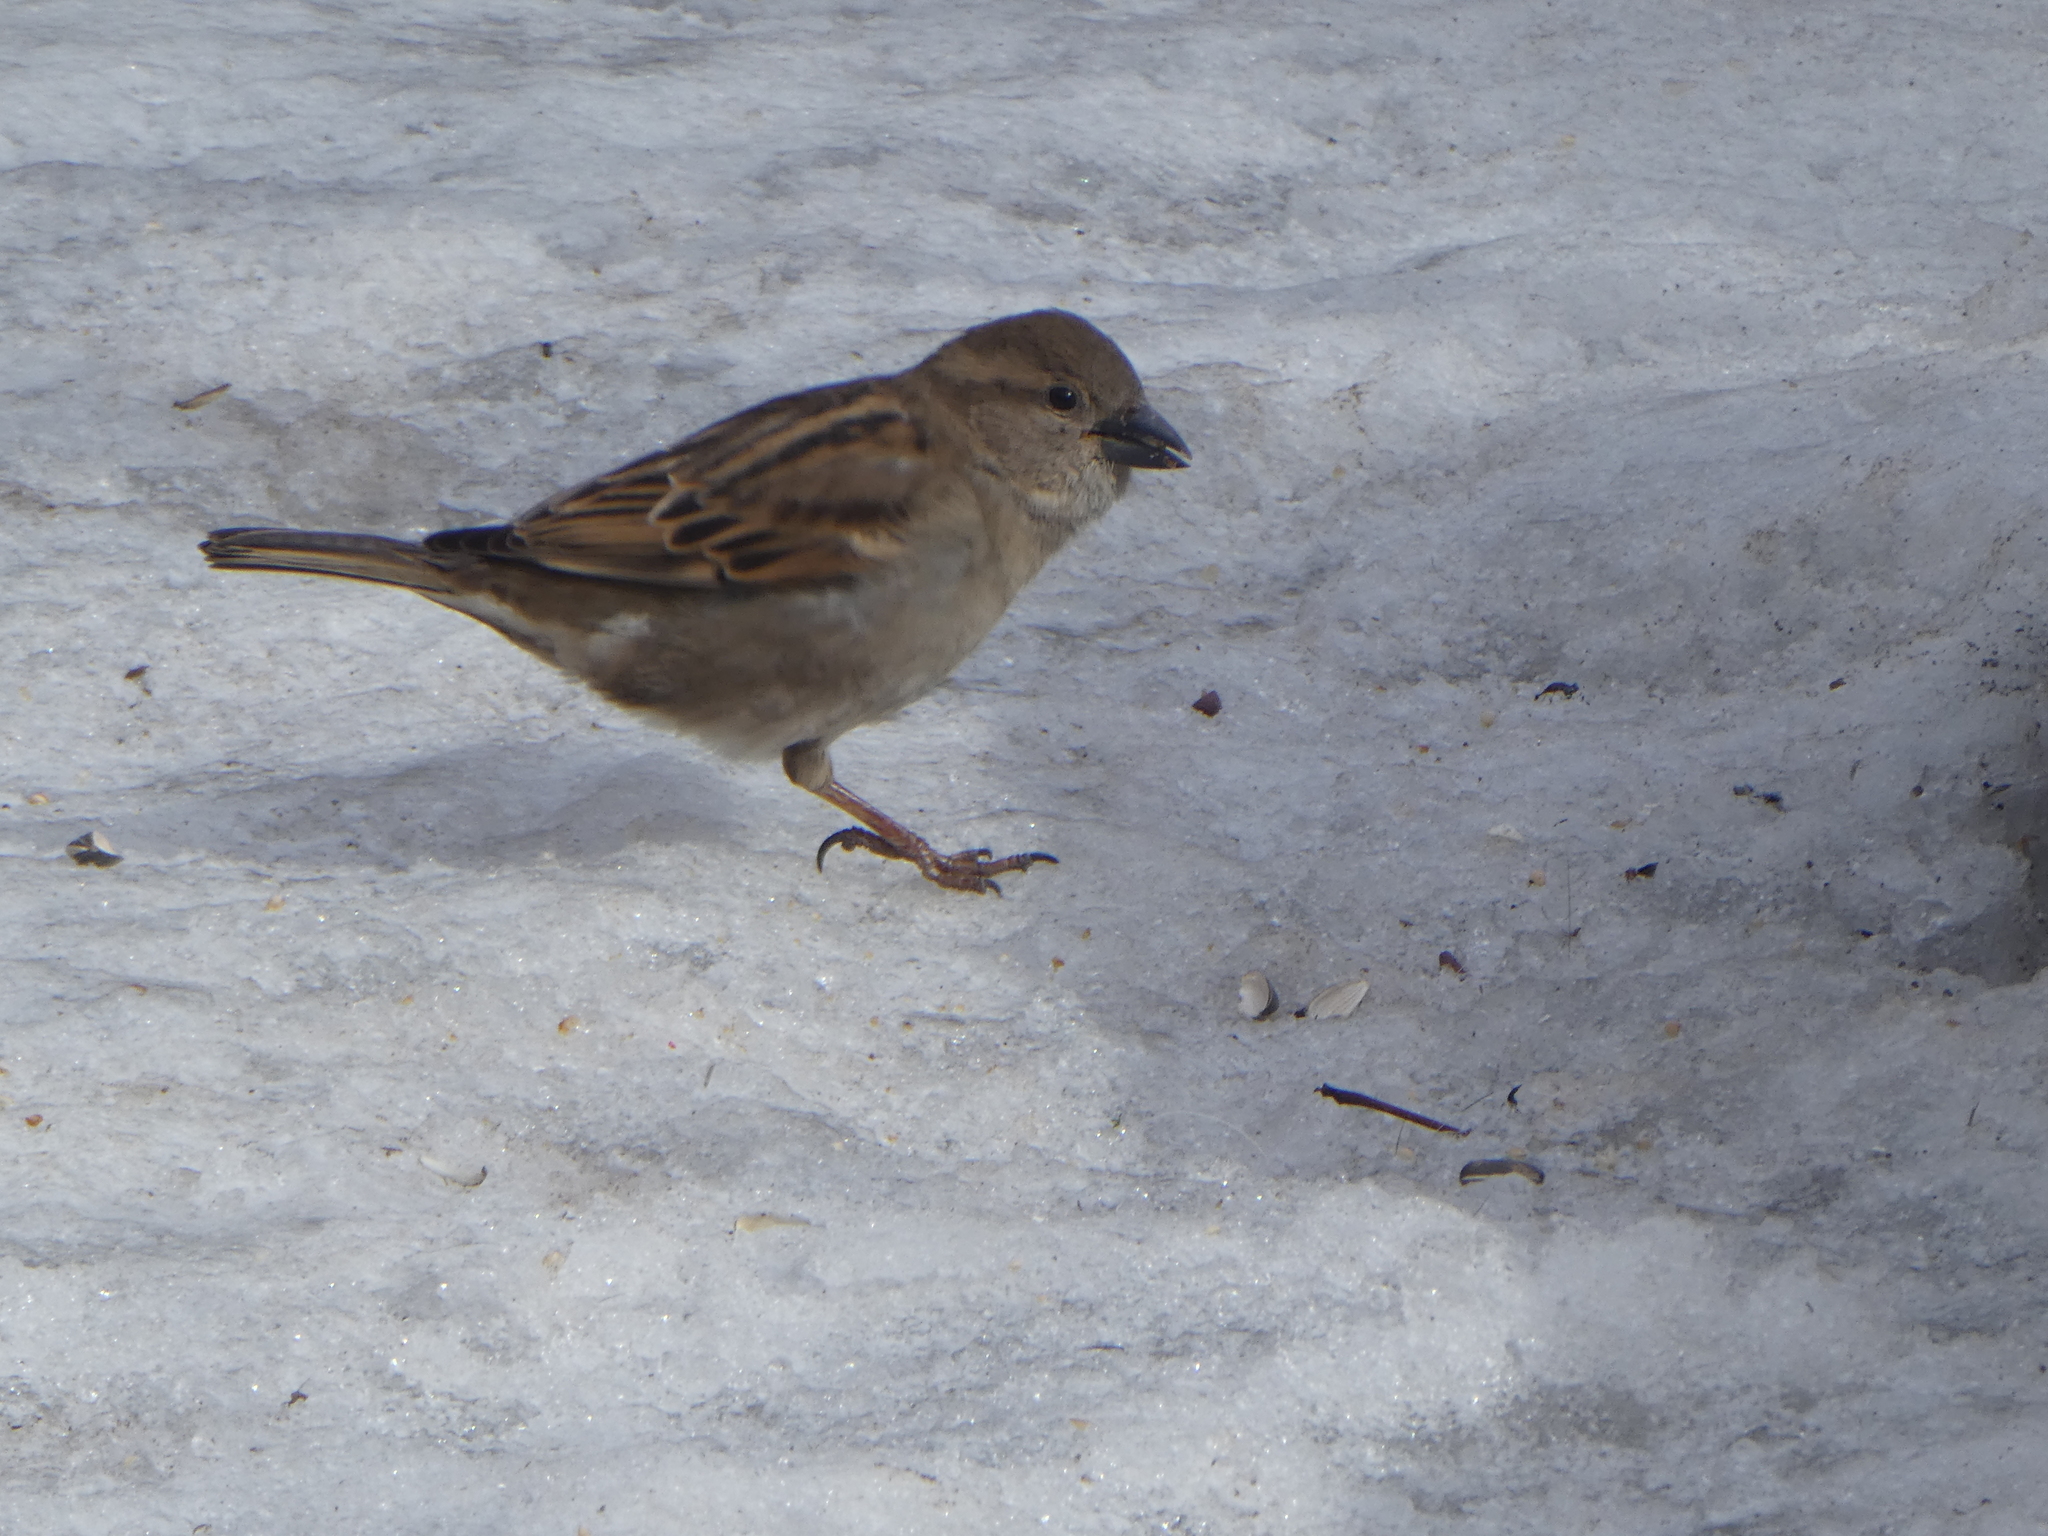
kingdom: Animalia
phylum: Chordata
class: Aves
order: Passeriformes
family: Passeridae
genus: Passer
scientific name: Passer domesticus
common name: House sparrow
